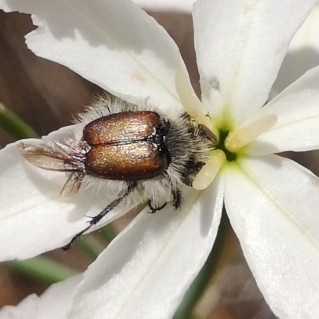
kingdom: Animalia
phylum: Arthropoda
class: Insecta
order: Coleoptera
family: Scarabaeidae
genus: Lichnia
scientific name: Lichnia limbata
